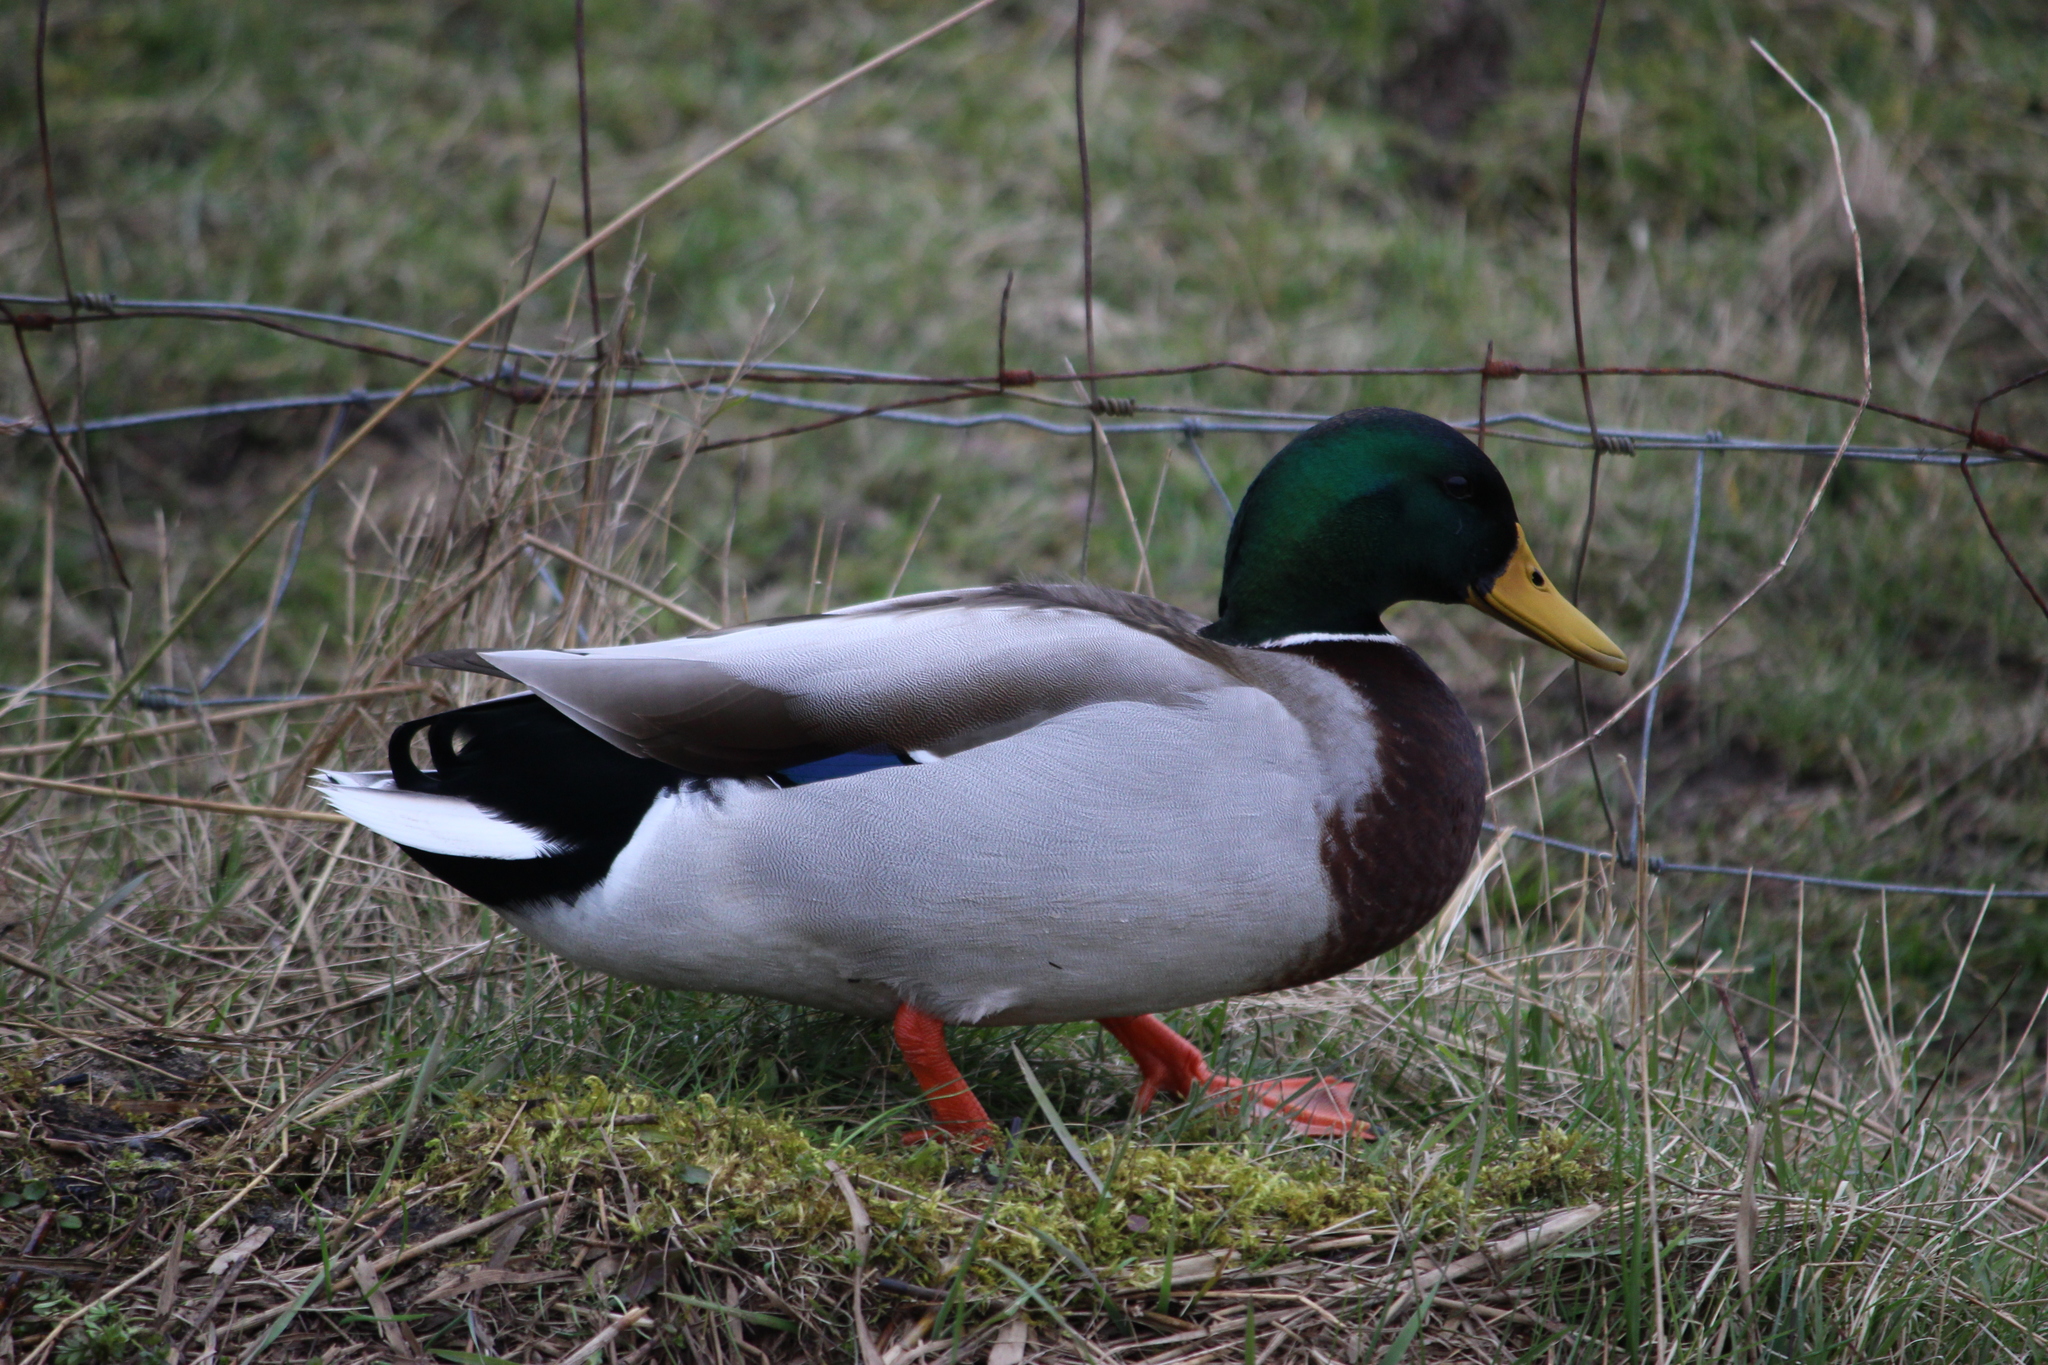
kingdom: Animalia
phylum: Chordata
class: Aves
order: Anseriformes
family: Anatidae
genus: Anas
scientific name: Anas platyrhynchos
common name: Mallard
